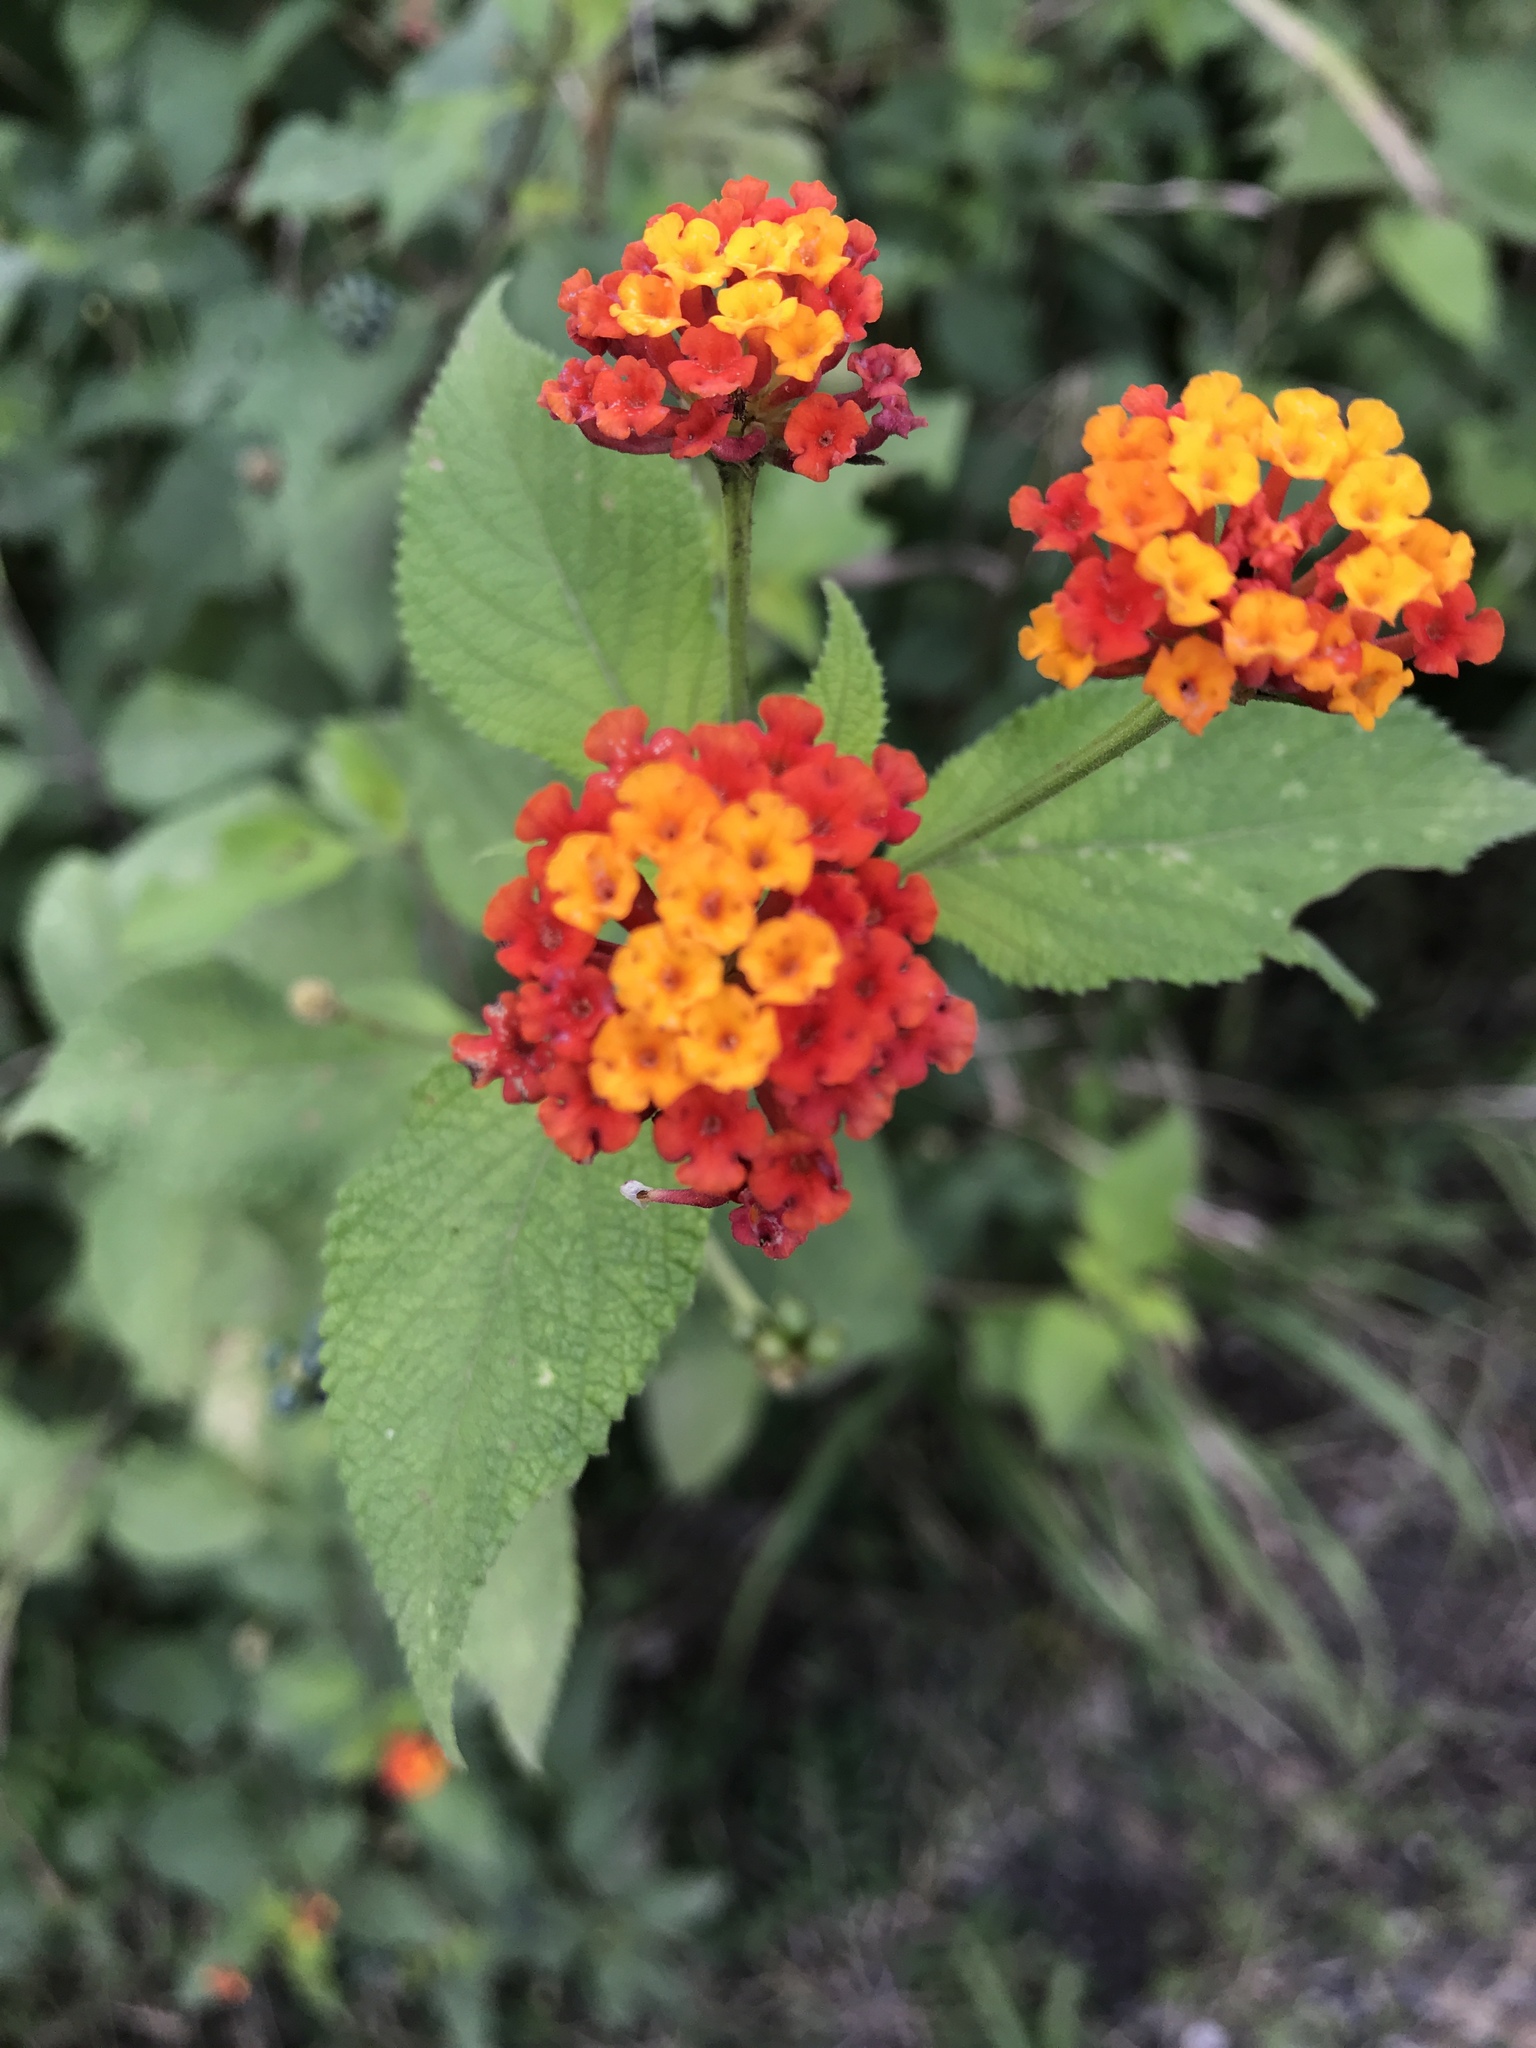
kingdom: Plantae
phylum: Tracheophyta
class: Magnoliopsida
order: Lamiales
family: Verbenaceae
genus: Lantana
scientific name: Lantana camara
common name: Lantana
